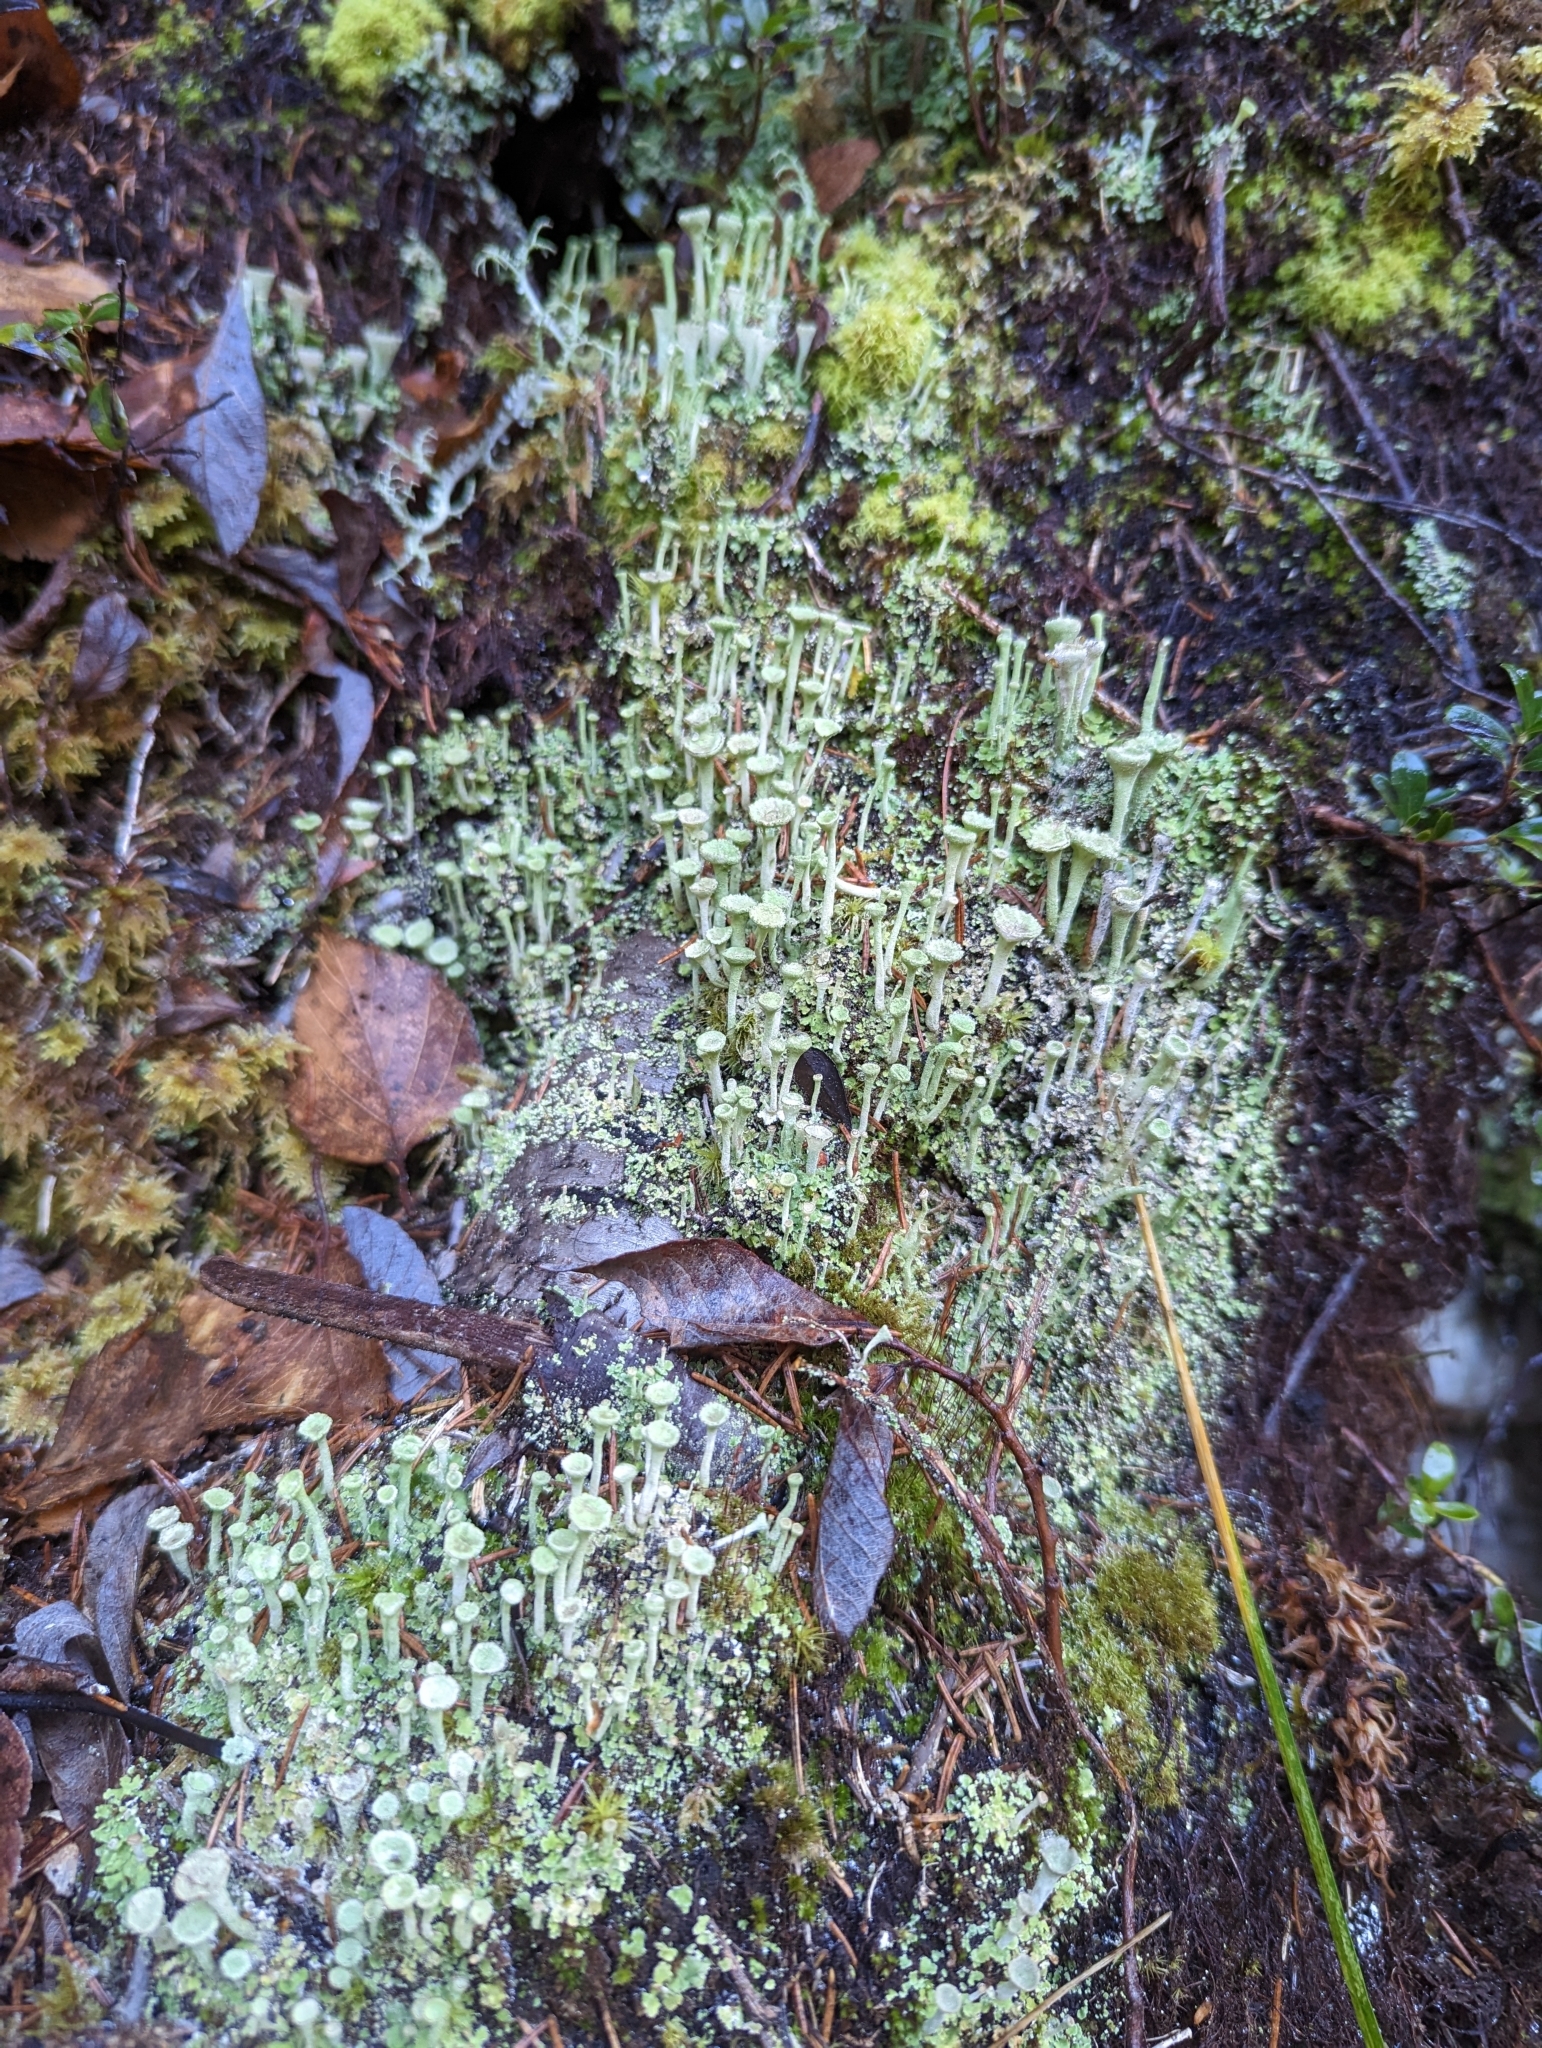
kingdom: Fungi
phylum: Ascomycota
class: Lecanoromycetes
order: Lecanorales
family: Cladoniaceae
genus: Cladonia
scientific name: Cladonia fimbriata
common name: Powdered trumpet lichen
